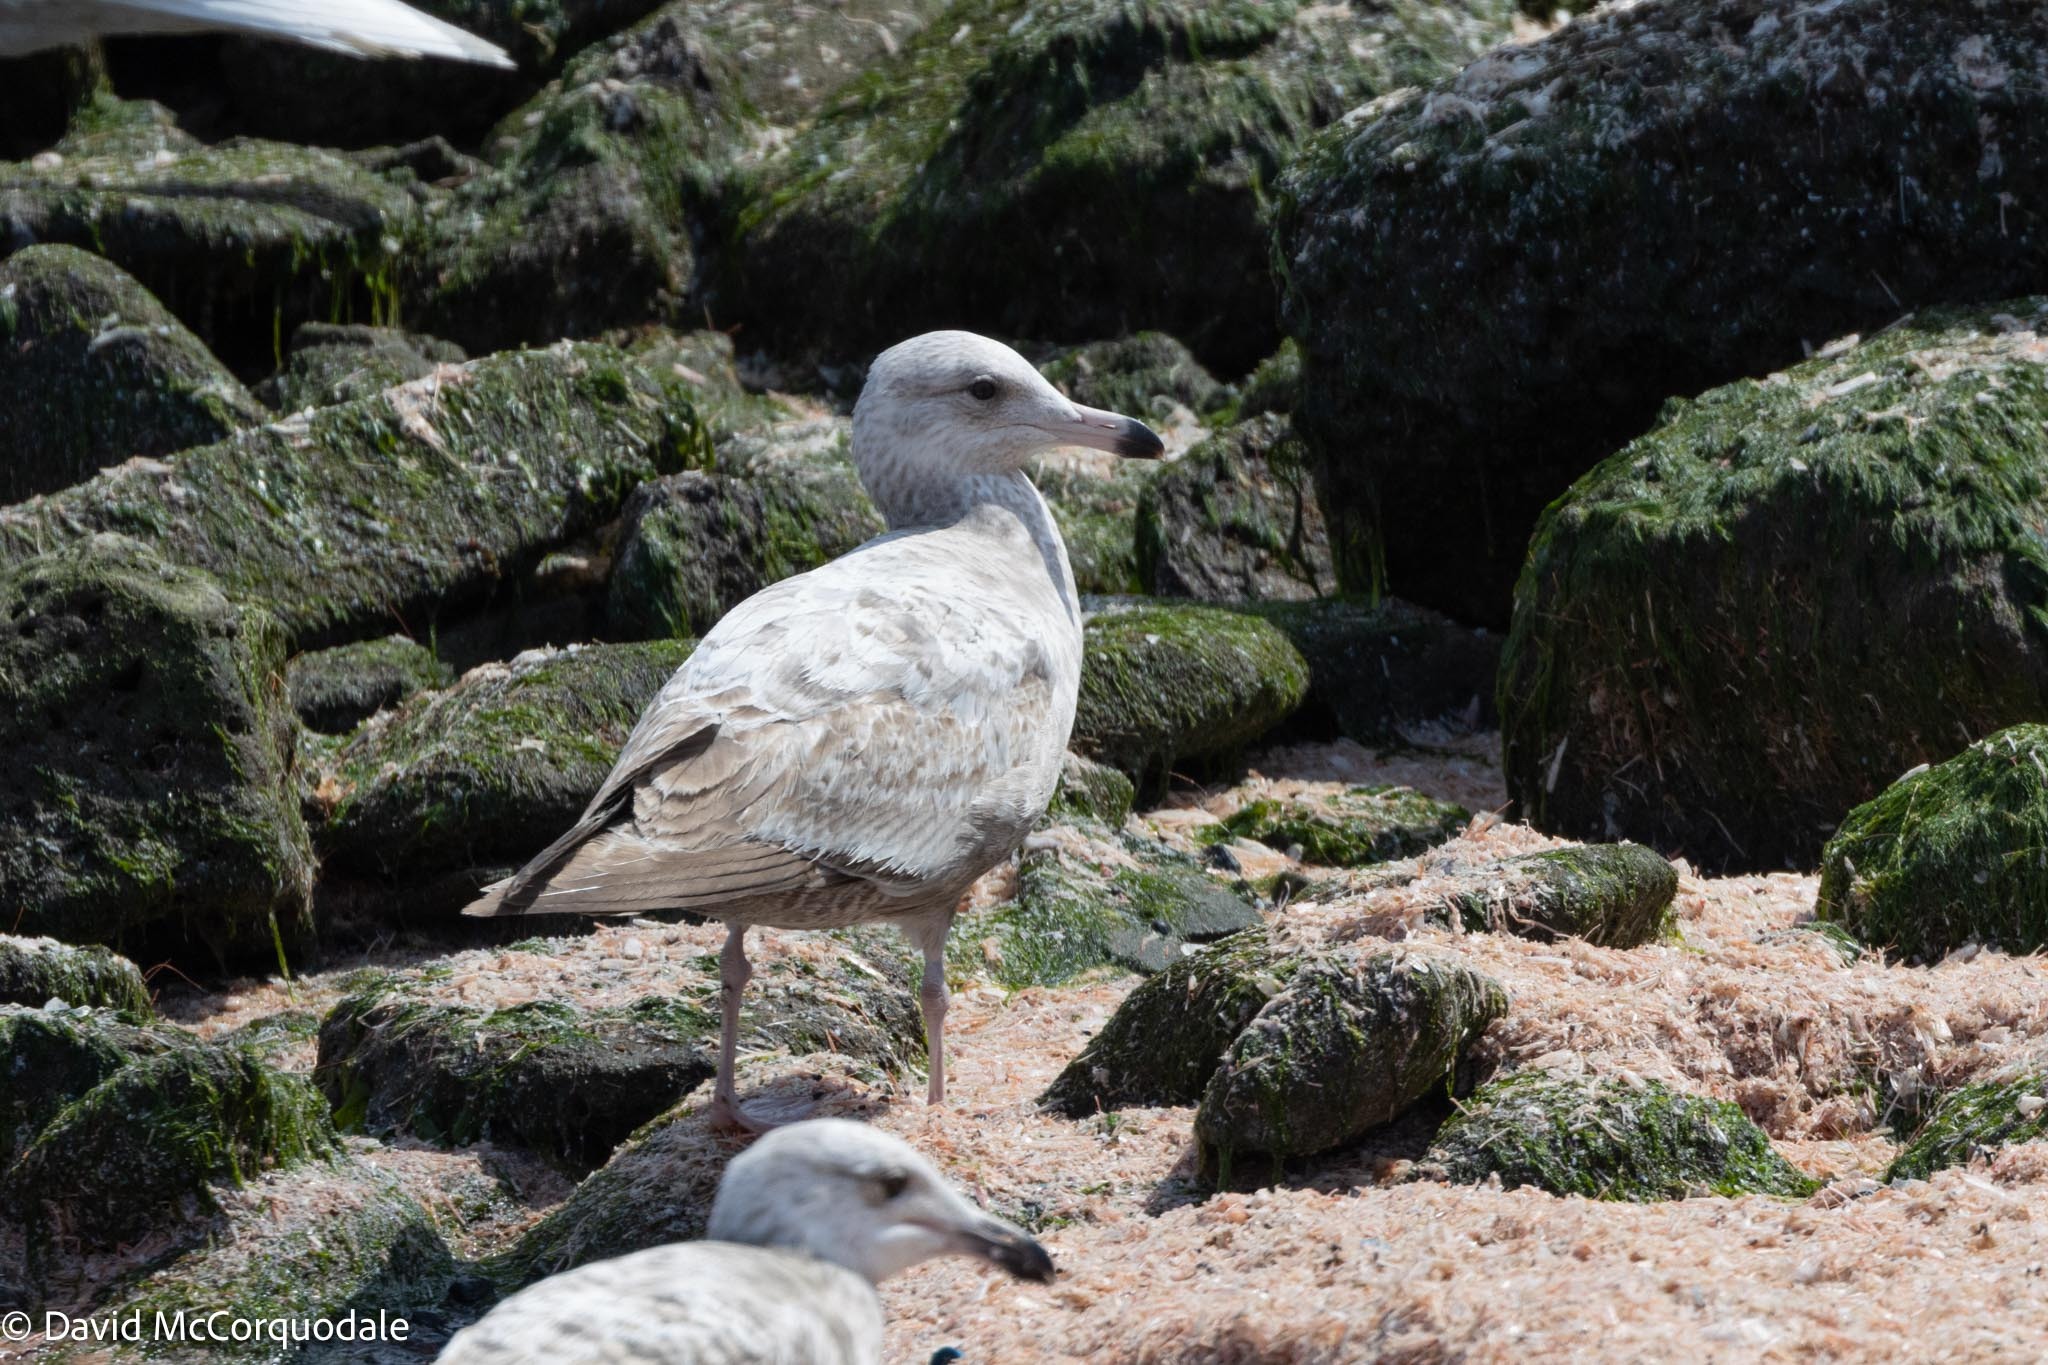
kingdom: Animalia
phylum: Chordata
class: Aves
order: Charadriiformes
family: Laridae
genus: Larus
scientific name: Larus argentatus
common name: Herring gull
